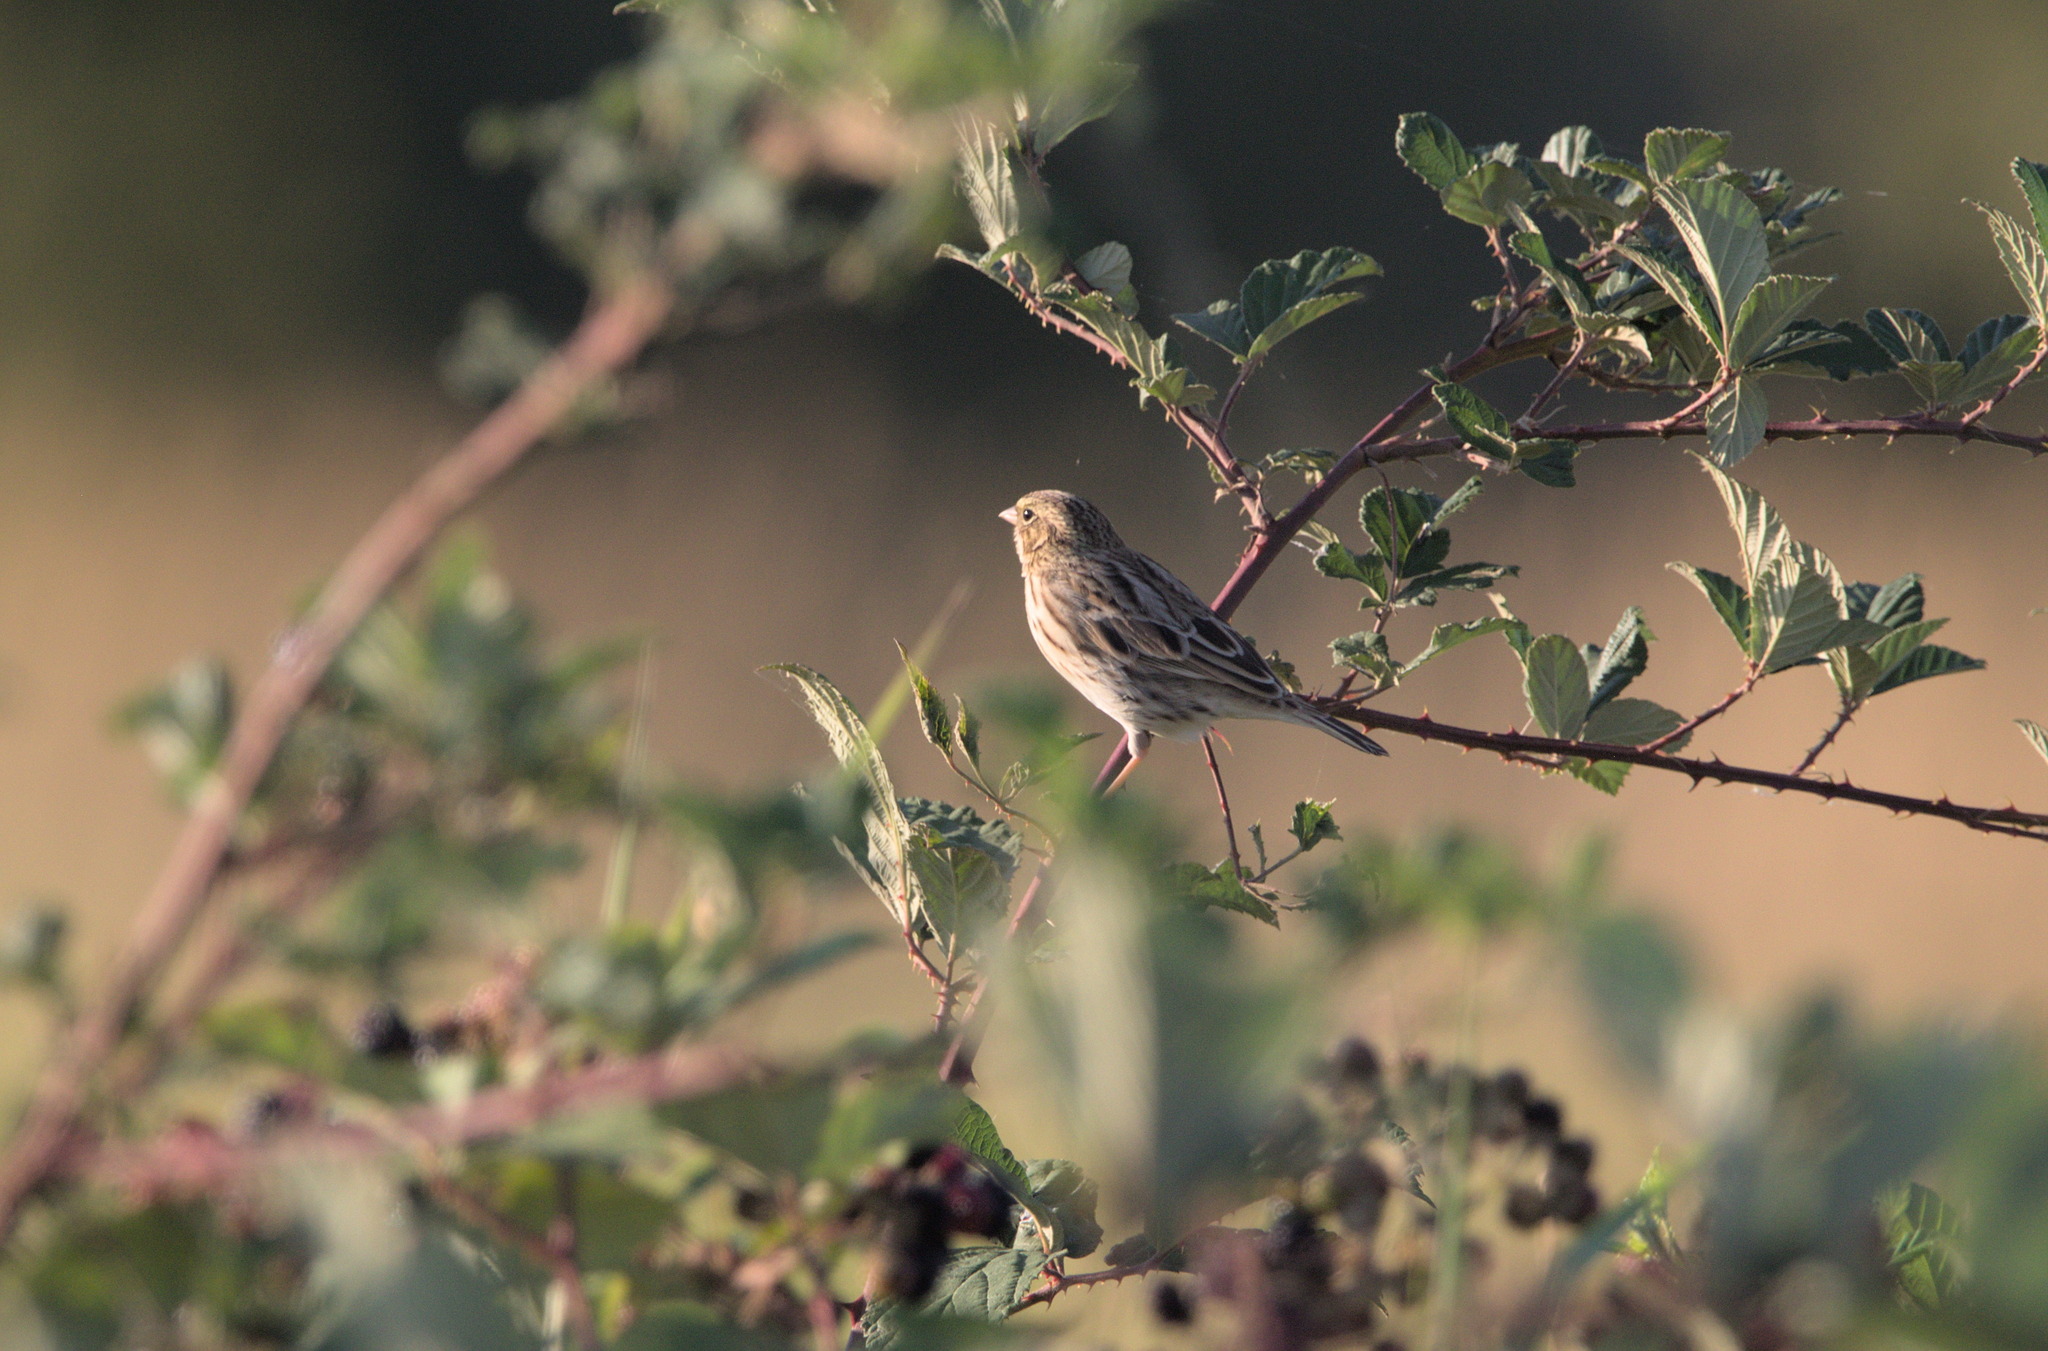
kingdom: Animalia
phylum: Chordata
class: Aves
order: Passeriformes
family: Passerellidae
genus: Passerculus
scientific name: Passerculus sandwichensis
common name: Savannah sparrow
